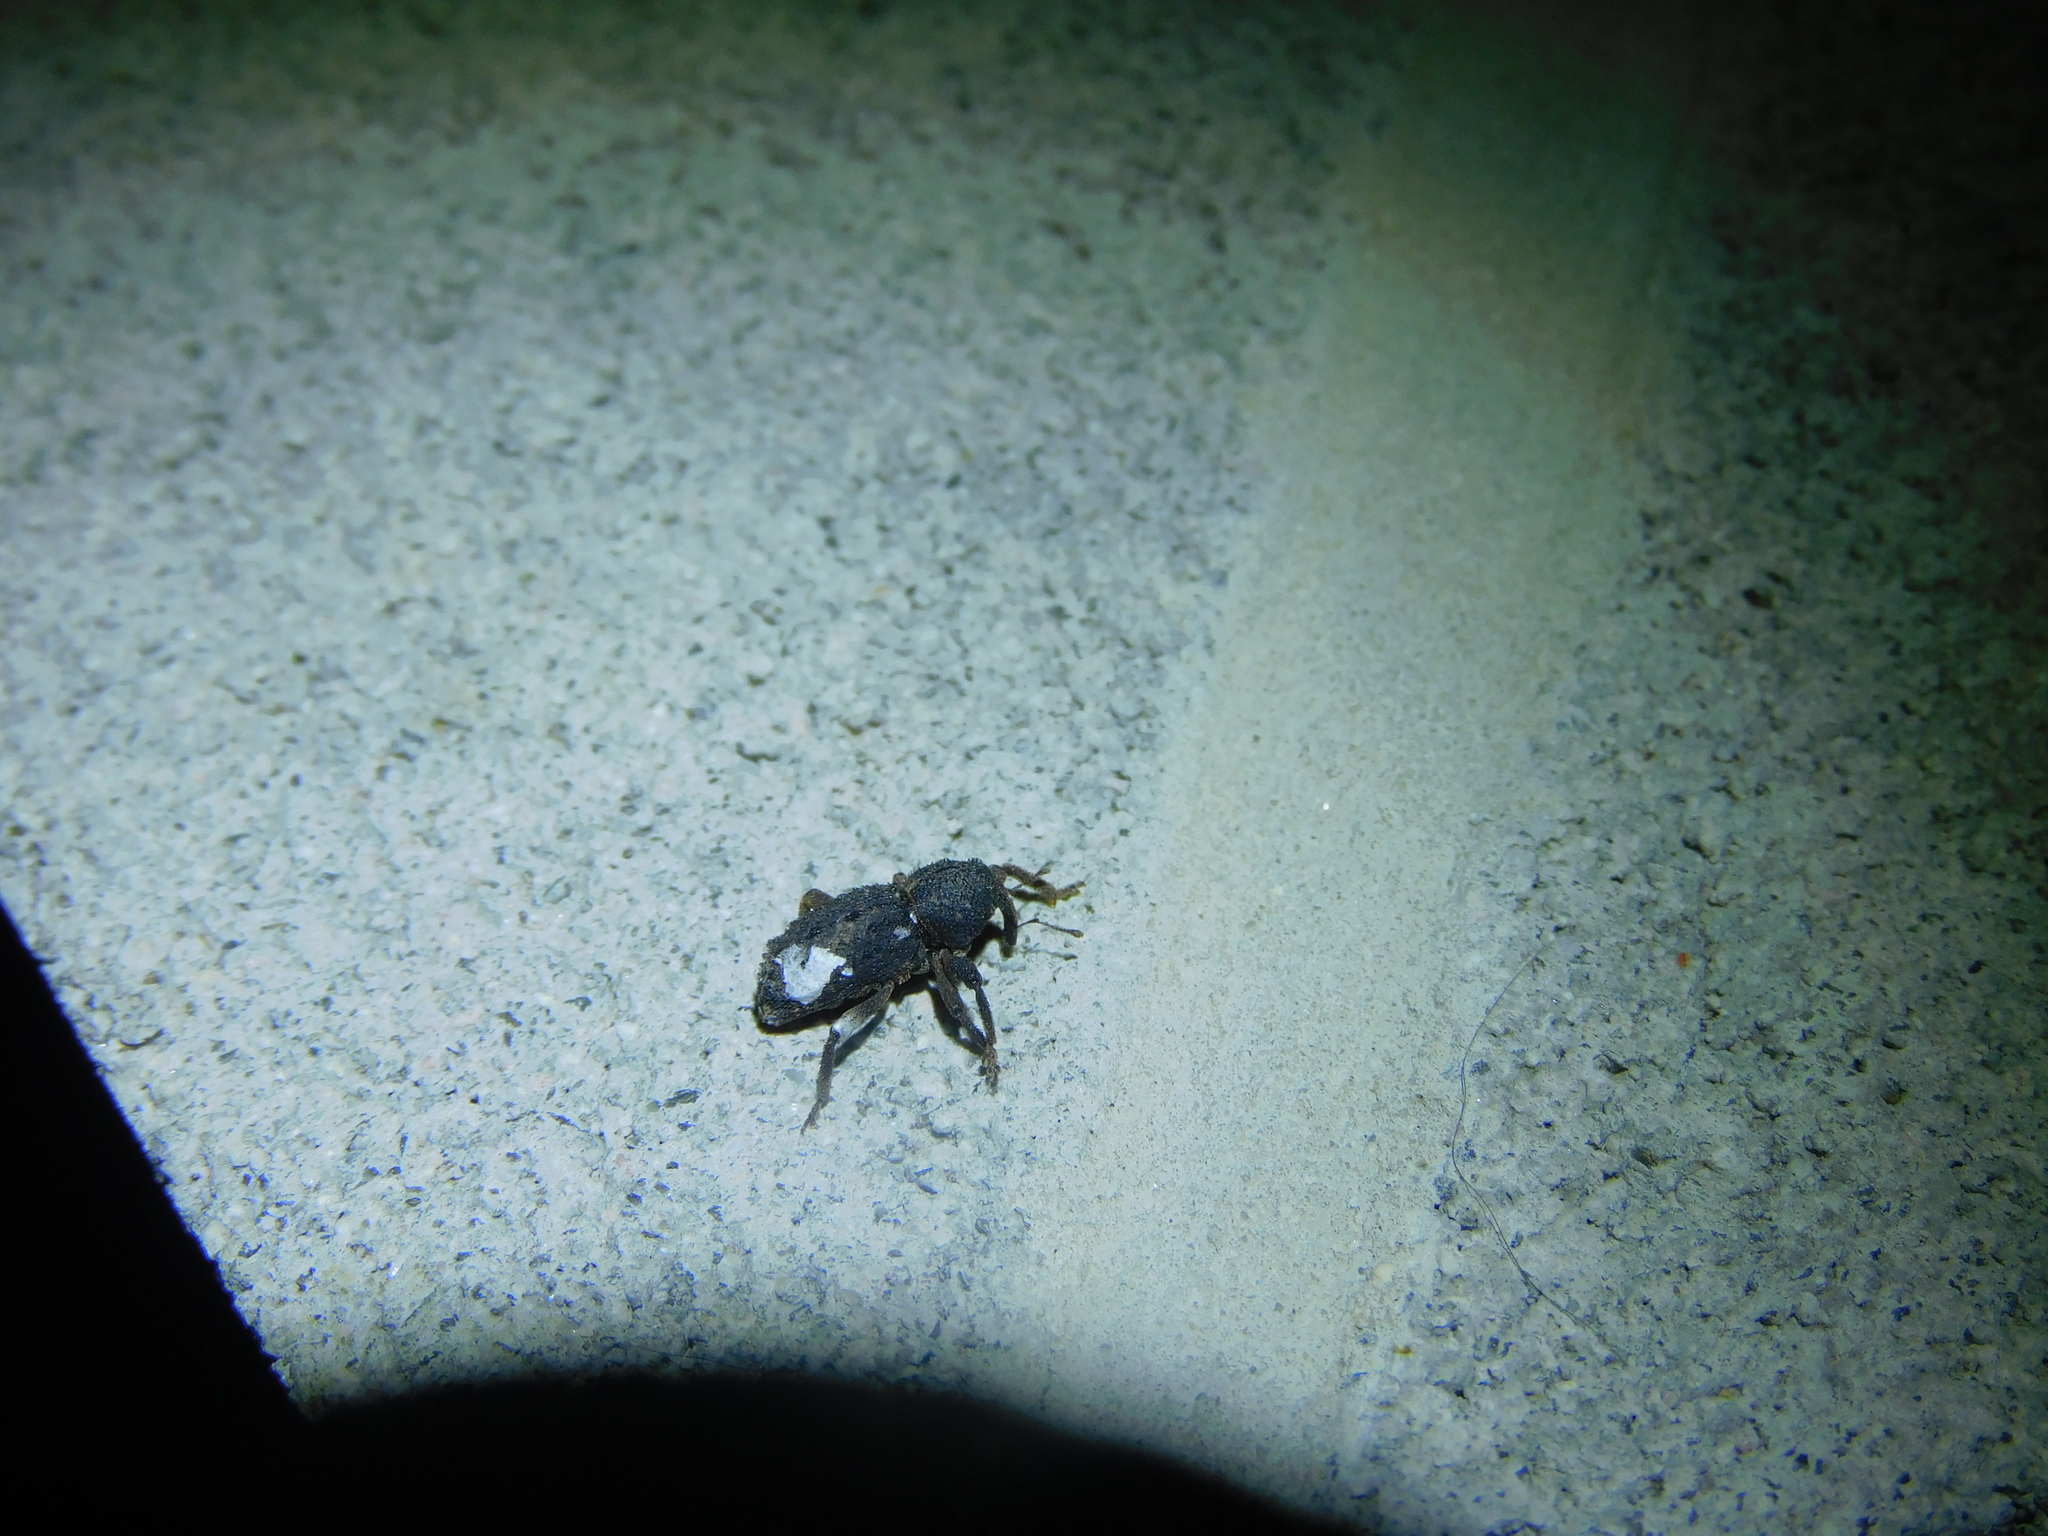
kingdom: Animalia
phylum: Arthropoda
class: Insecta
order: Coleoptera
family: Curculionidae
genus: Poropterus
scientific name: Poropterus melancholicus
